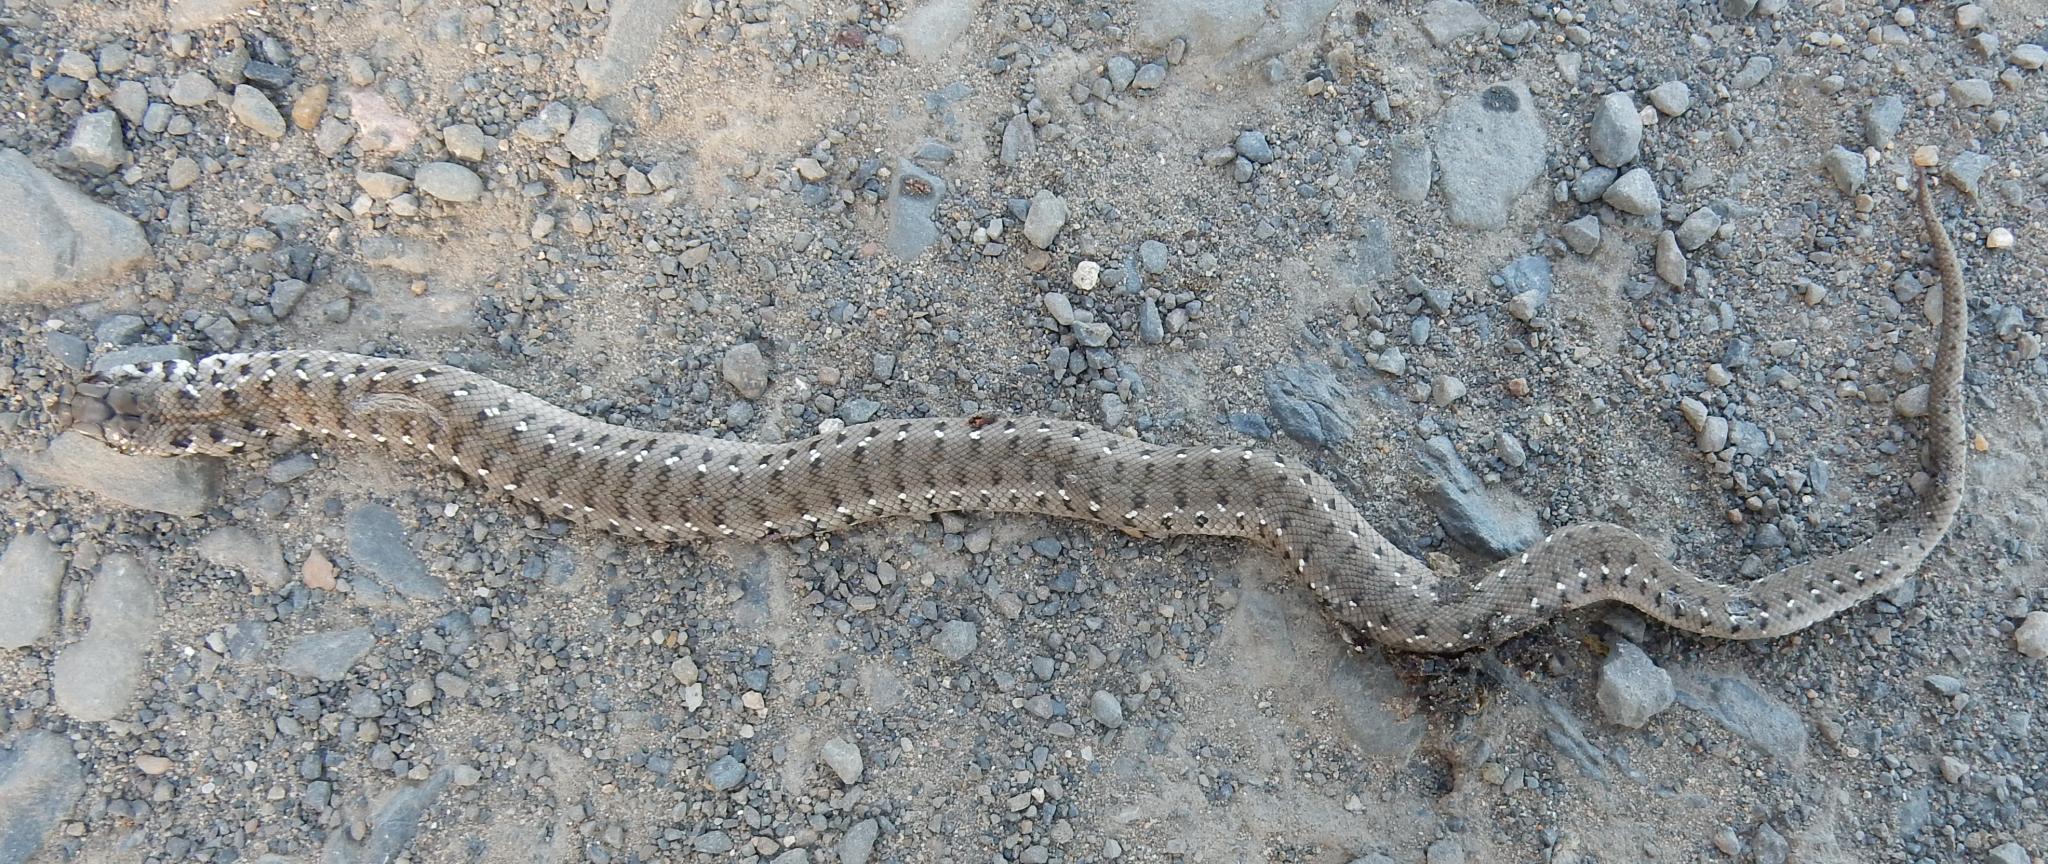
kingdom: Animalia
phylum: Chordata
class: Squamata
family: Pseudaspididae
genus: Pseudaspis
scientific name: Pseudaspis cana
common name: Mole snake
